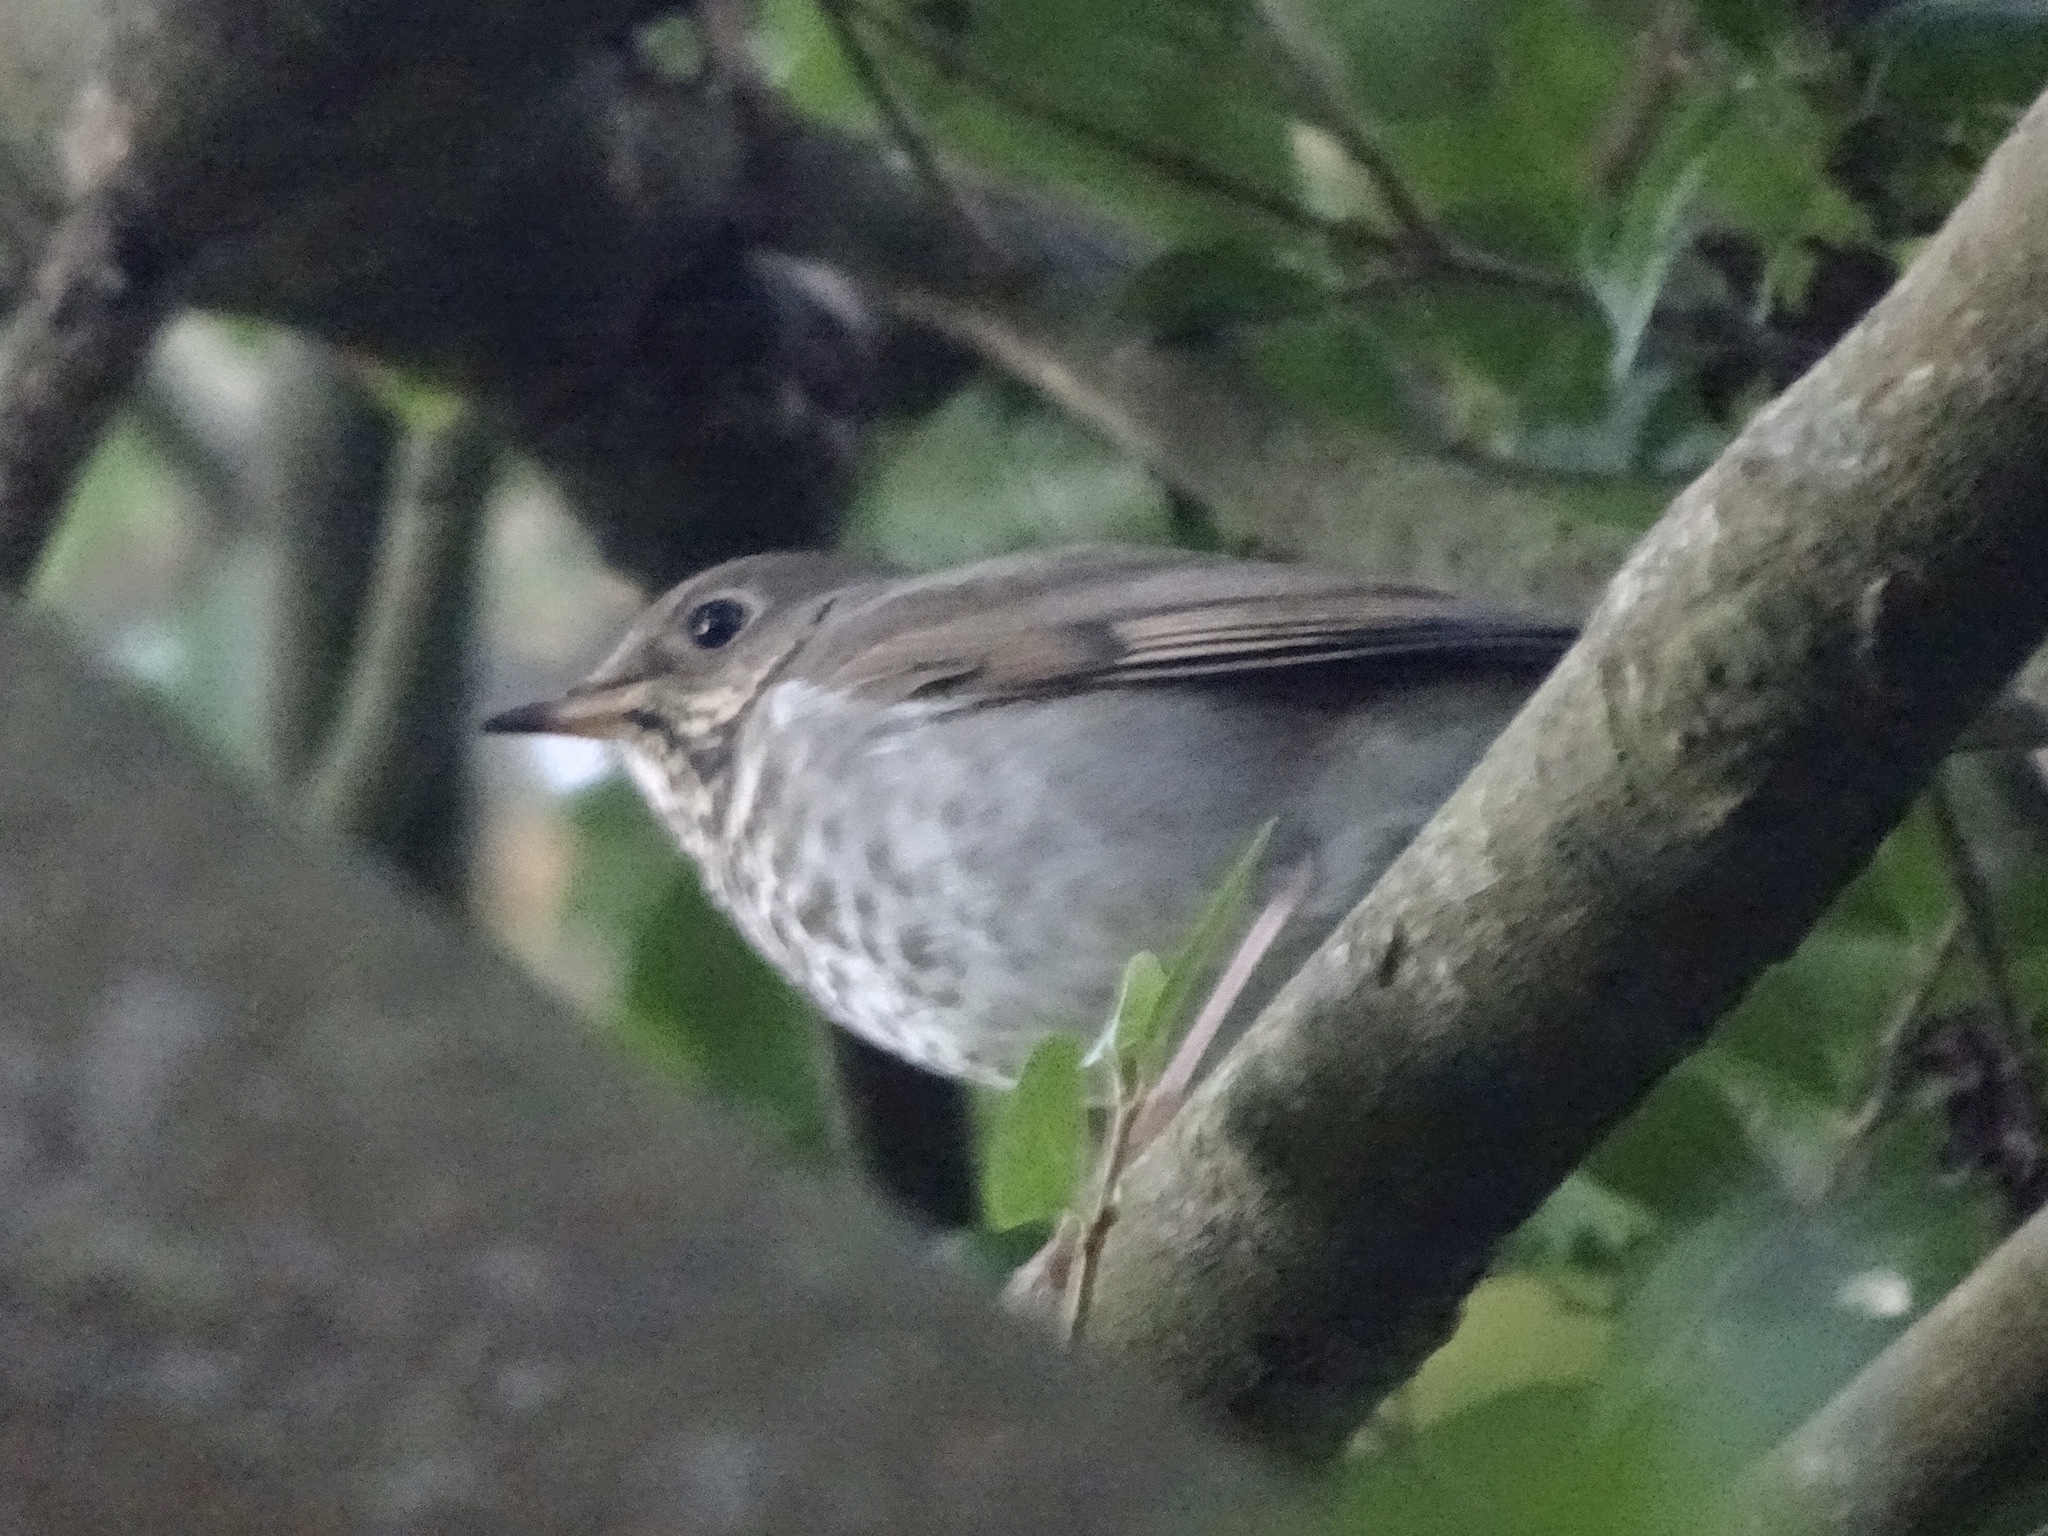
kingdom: Animalia
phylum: Chordata
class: Aves
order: Passeriformes
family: Turdidae
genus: Catharus
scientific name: Catharus guttatus
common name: Hermit thrush
